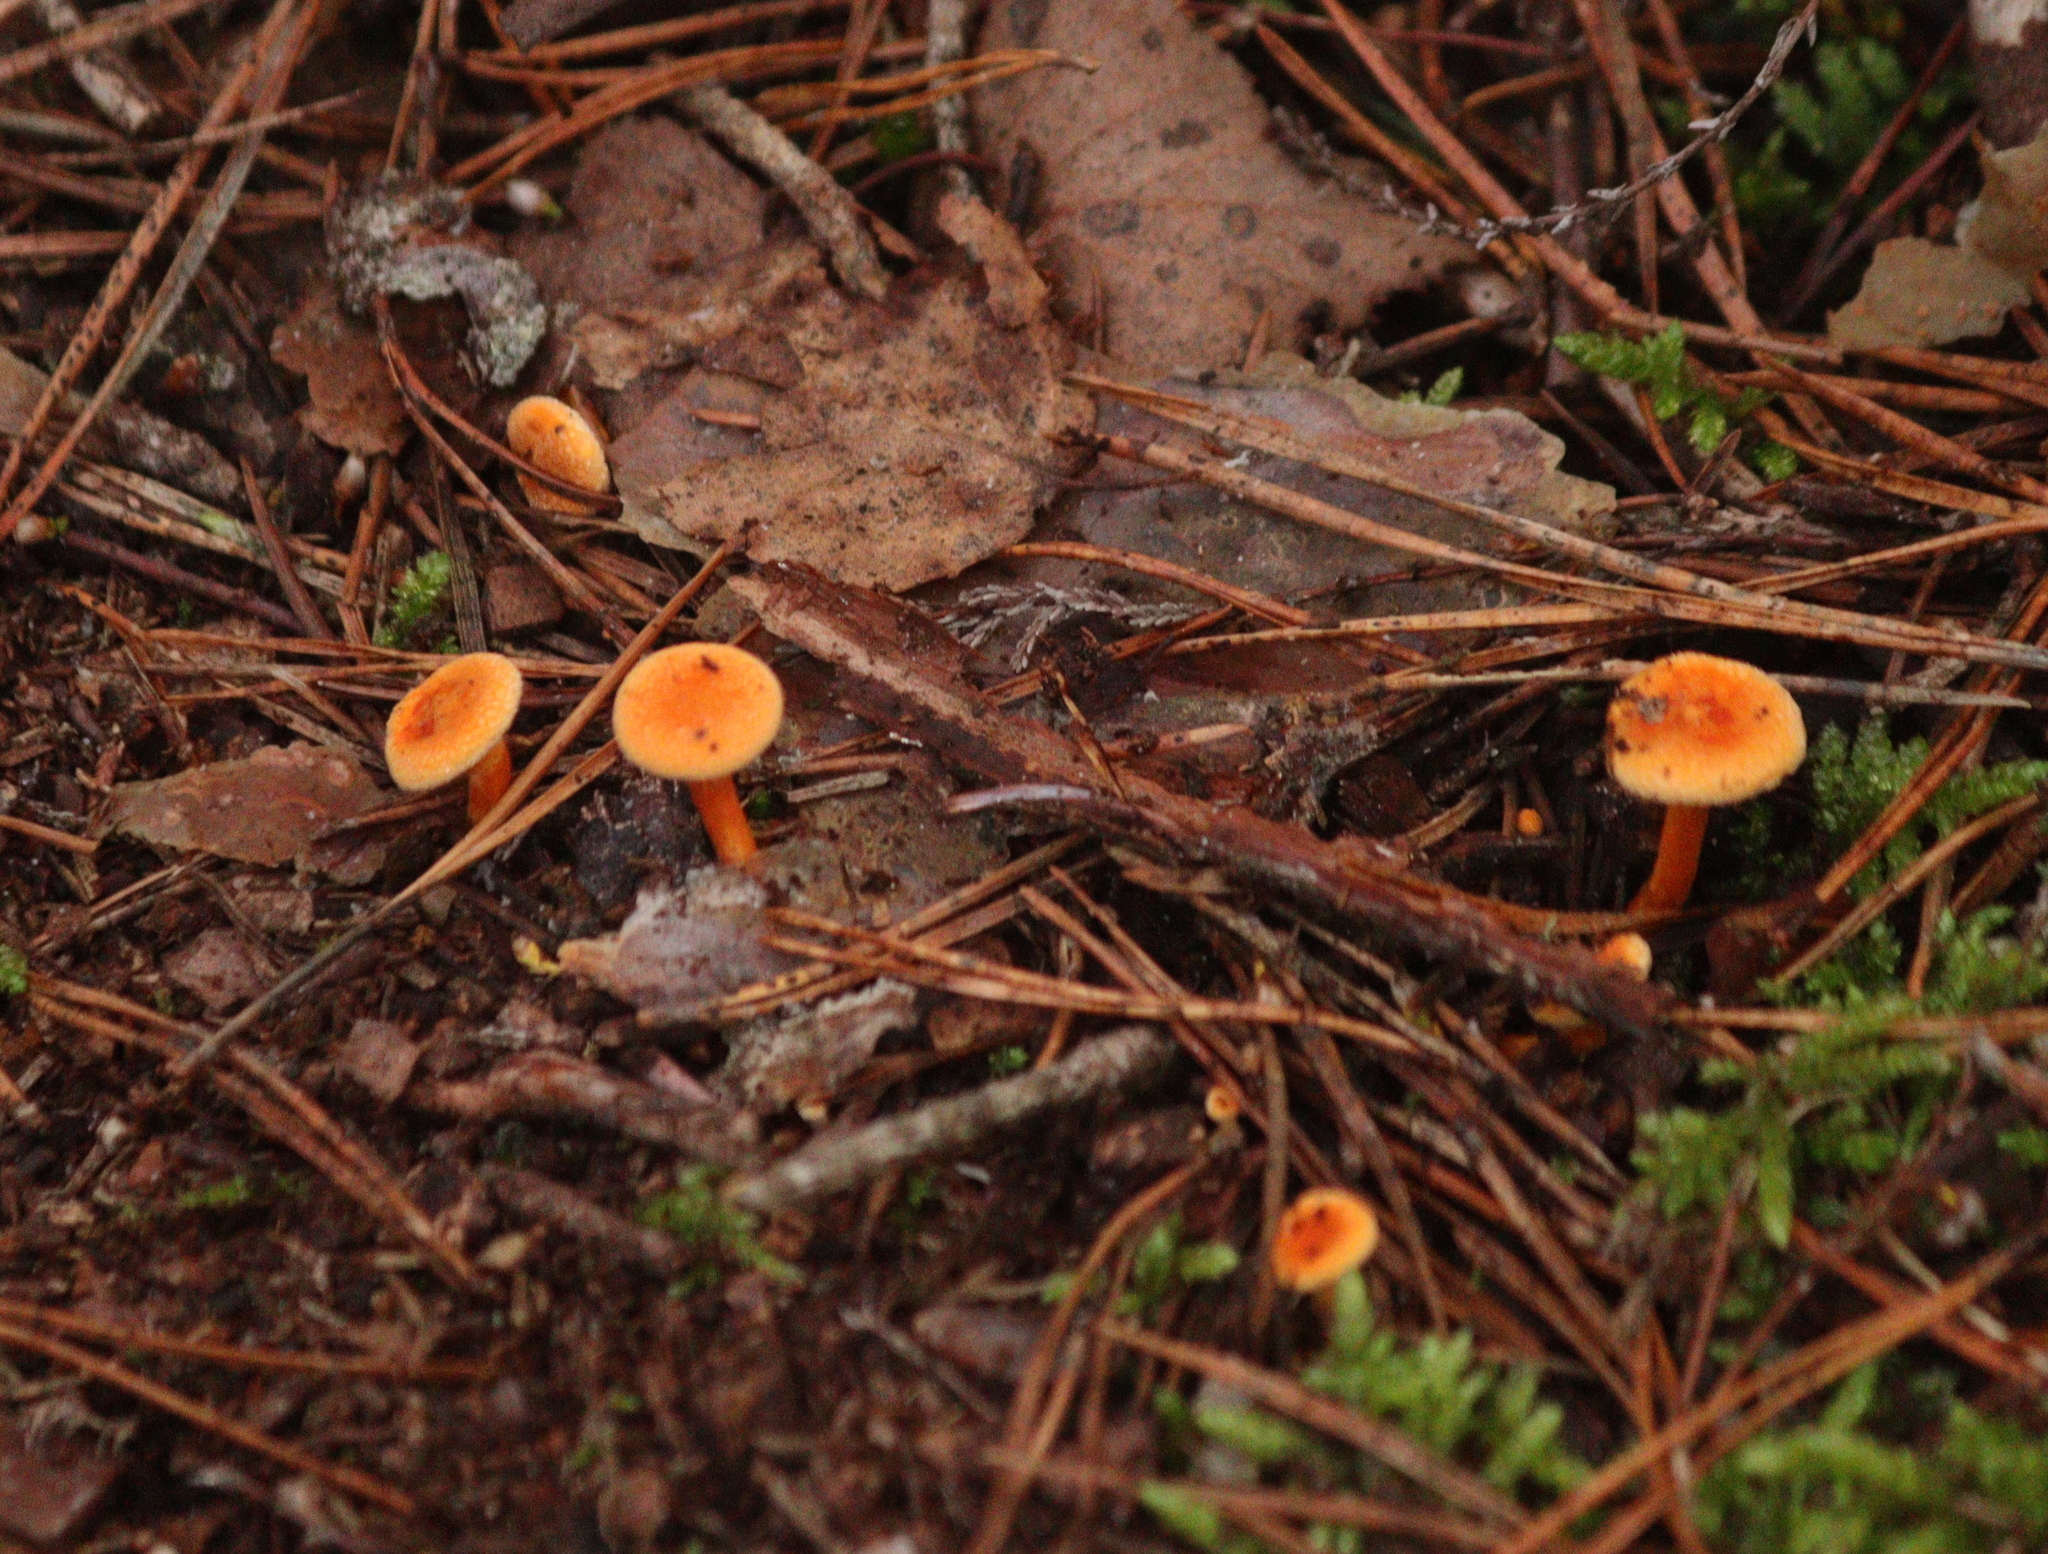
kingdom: Fungi
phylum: Basidiomycota
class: Agaricomycetes
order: Boletales
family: Hygrophoropsidaceae
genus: Hygrophoropsis
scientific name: Hygrophoropsis aurantiaca
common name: False chanterelle
